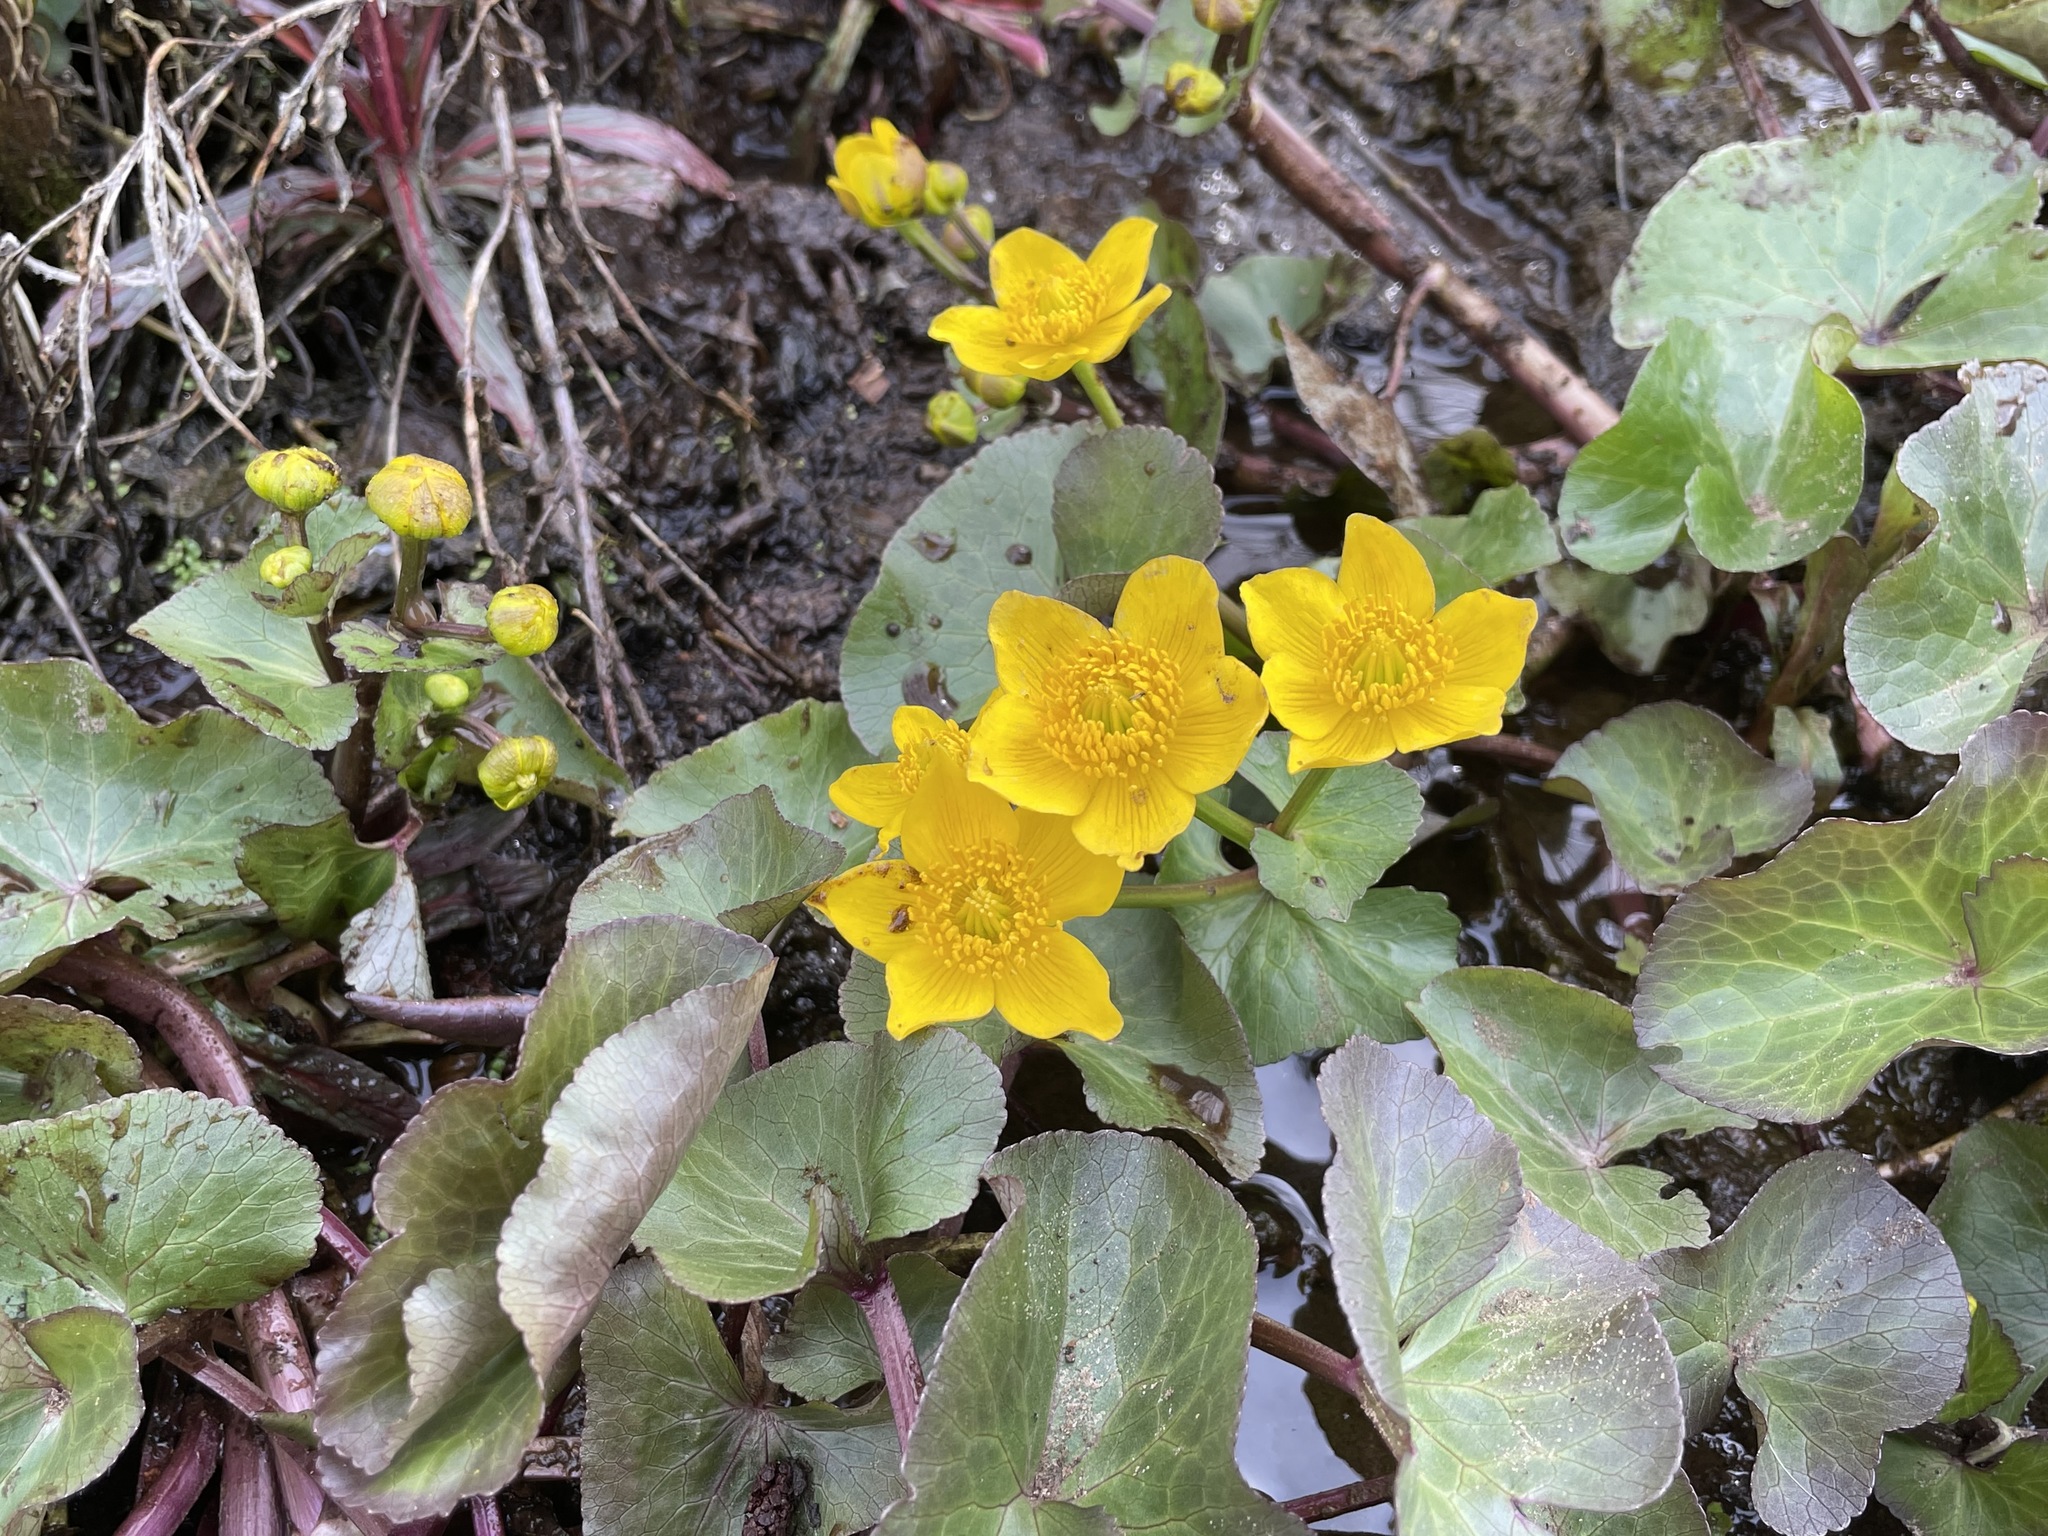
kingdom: Plantae
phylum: Tracheophyta
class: Magnoliopsida
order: Ranunculales
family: Ranunculaceae
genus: Caltha
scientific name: Caltha palustris
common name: Marsh marigold
